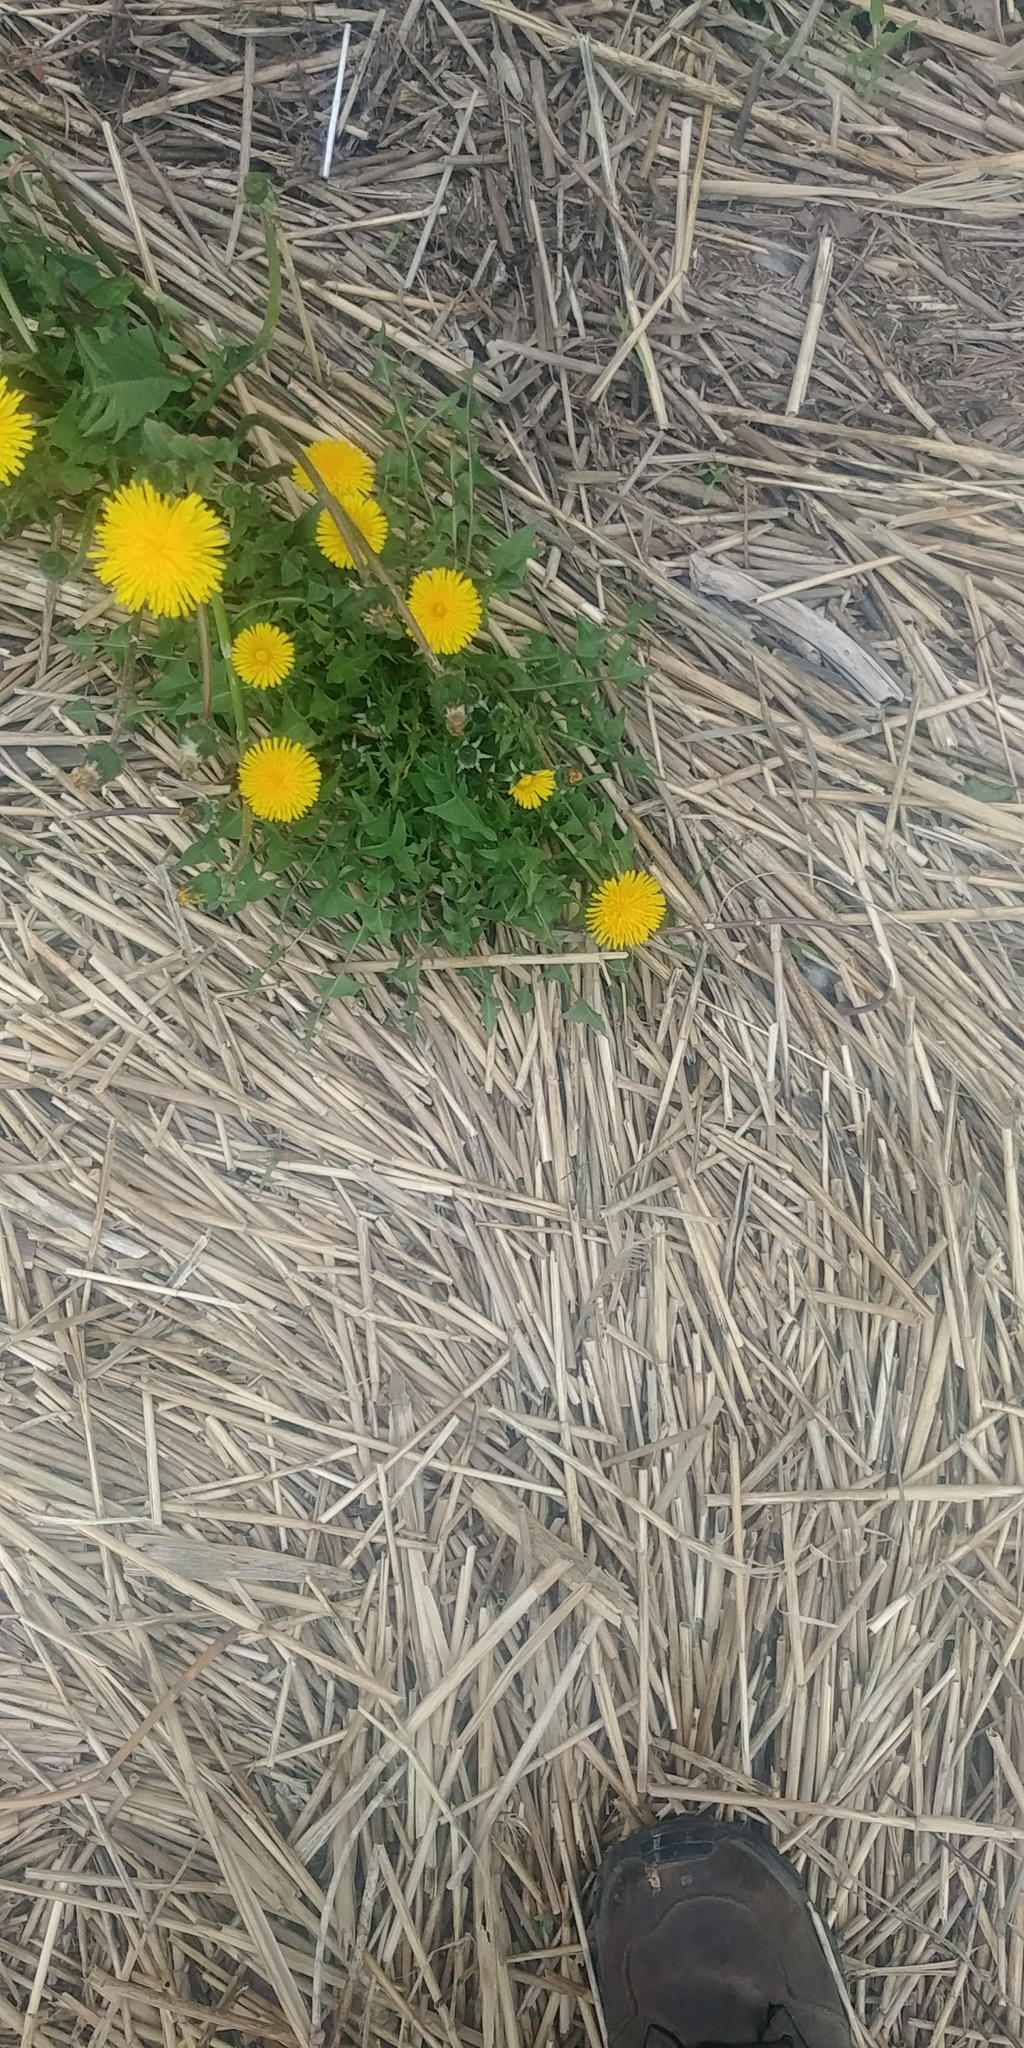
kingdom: Plantae
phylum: Tracheophyta
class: Magnoliopsida
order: Asterales
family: Asteraceae
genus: Taraxacum
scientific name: Taraxacum officinale
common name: Common dandelion
